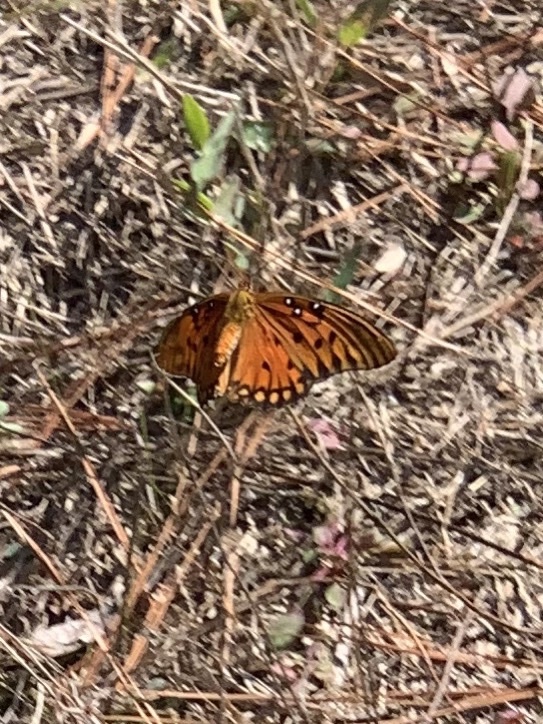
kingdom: Animalia
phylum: Arthropoda
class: Insecta
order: Lepidoptera
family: Nymphalidae
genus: Dione
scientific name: Dione vanillae
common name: Gulf fritillary
